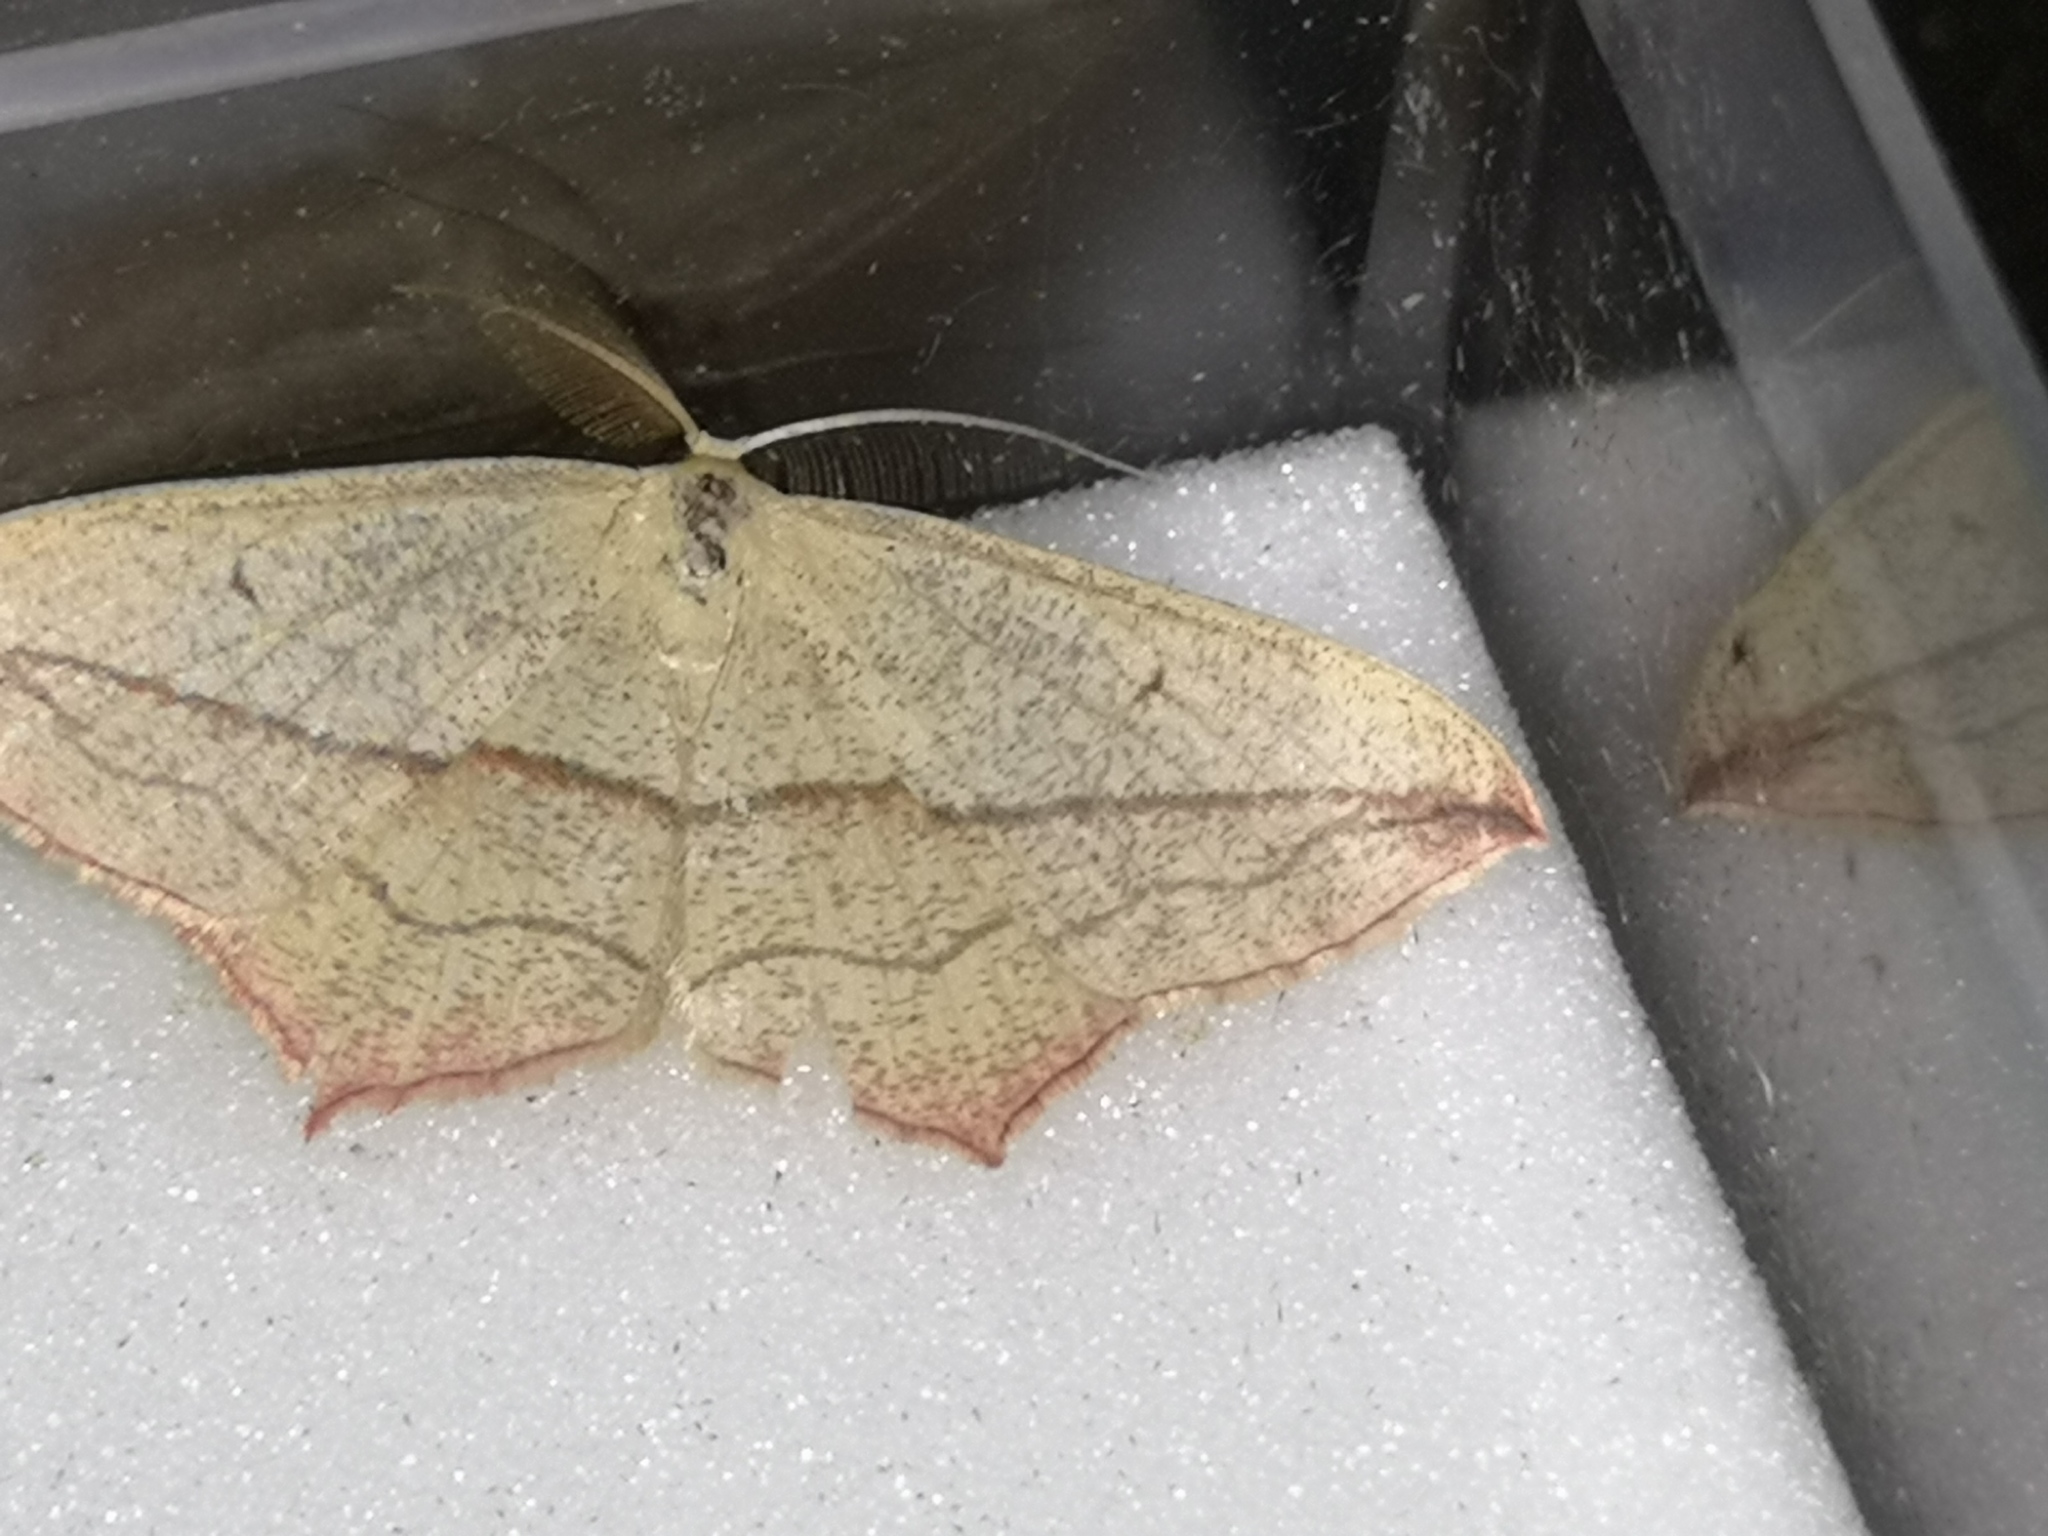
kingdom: Animalia
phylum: Arthropoda
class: Insecta
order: Lepidoptera
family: Geometridae
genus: Timandra
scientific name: Timandra comae
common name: Blood-vein
